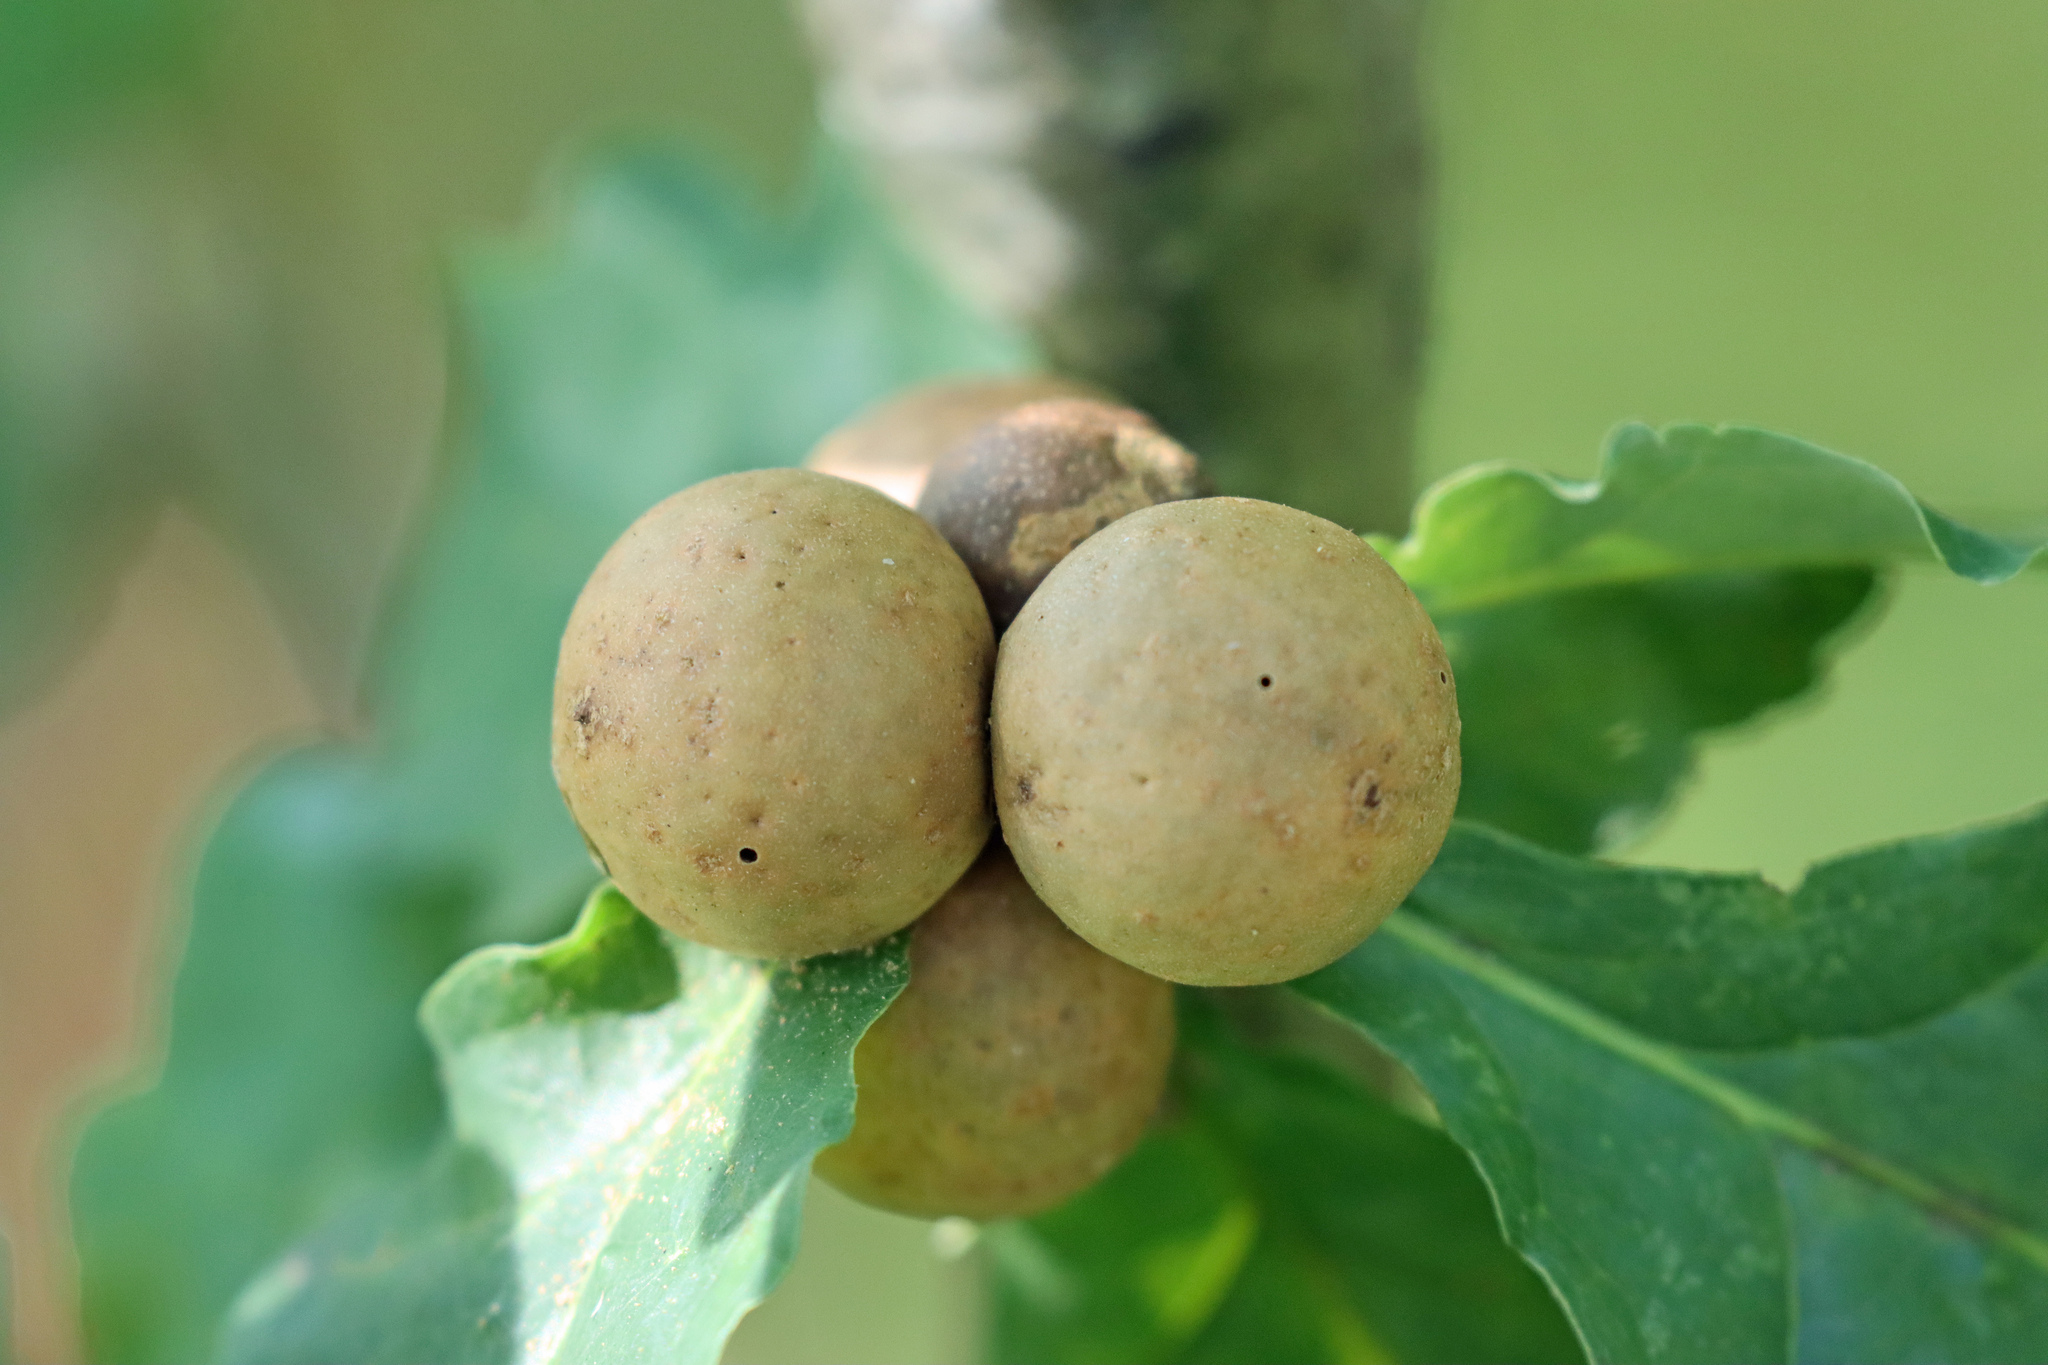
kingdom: Animalia
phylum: Arthropoda
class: Insecta
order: Hymenoptera
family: Cynipidae
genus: Andricus
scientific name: Andricus kollari
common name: Marble gall
